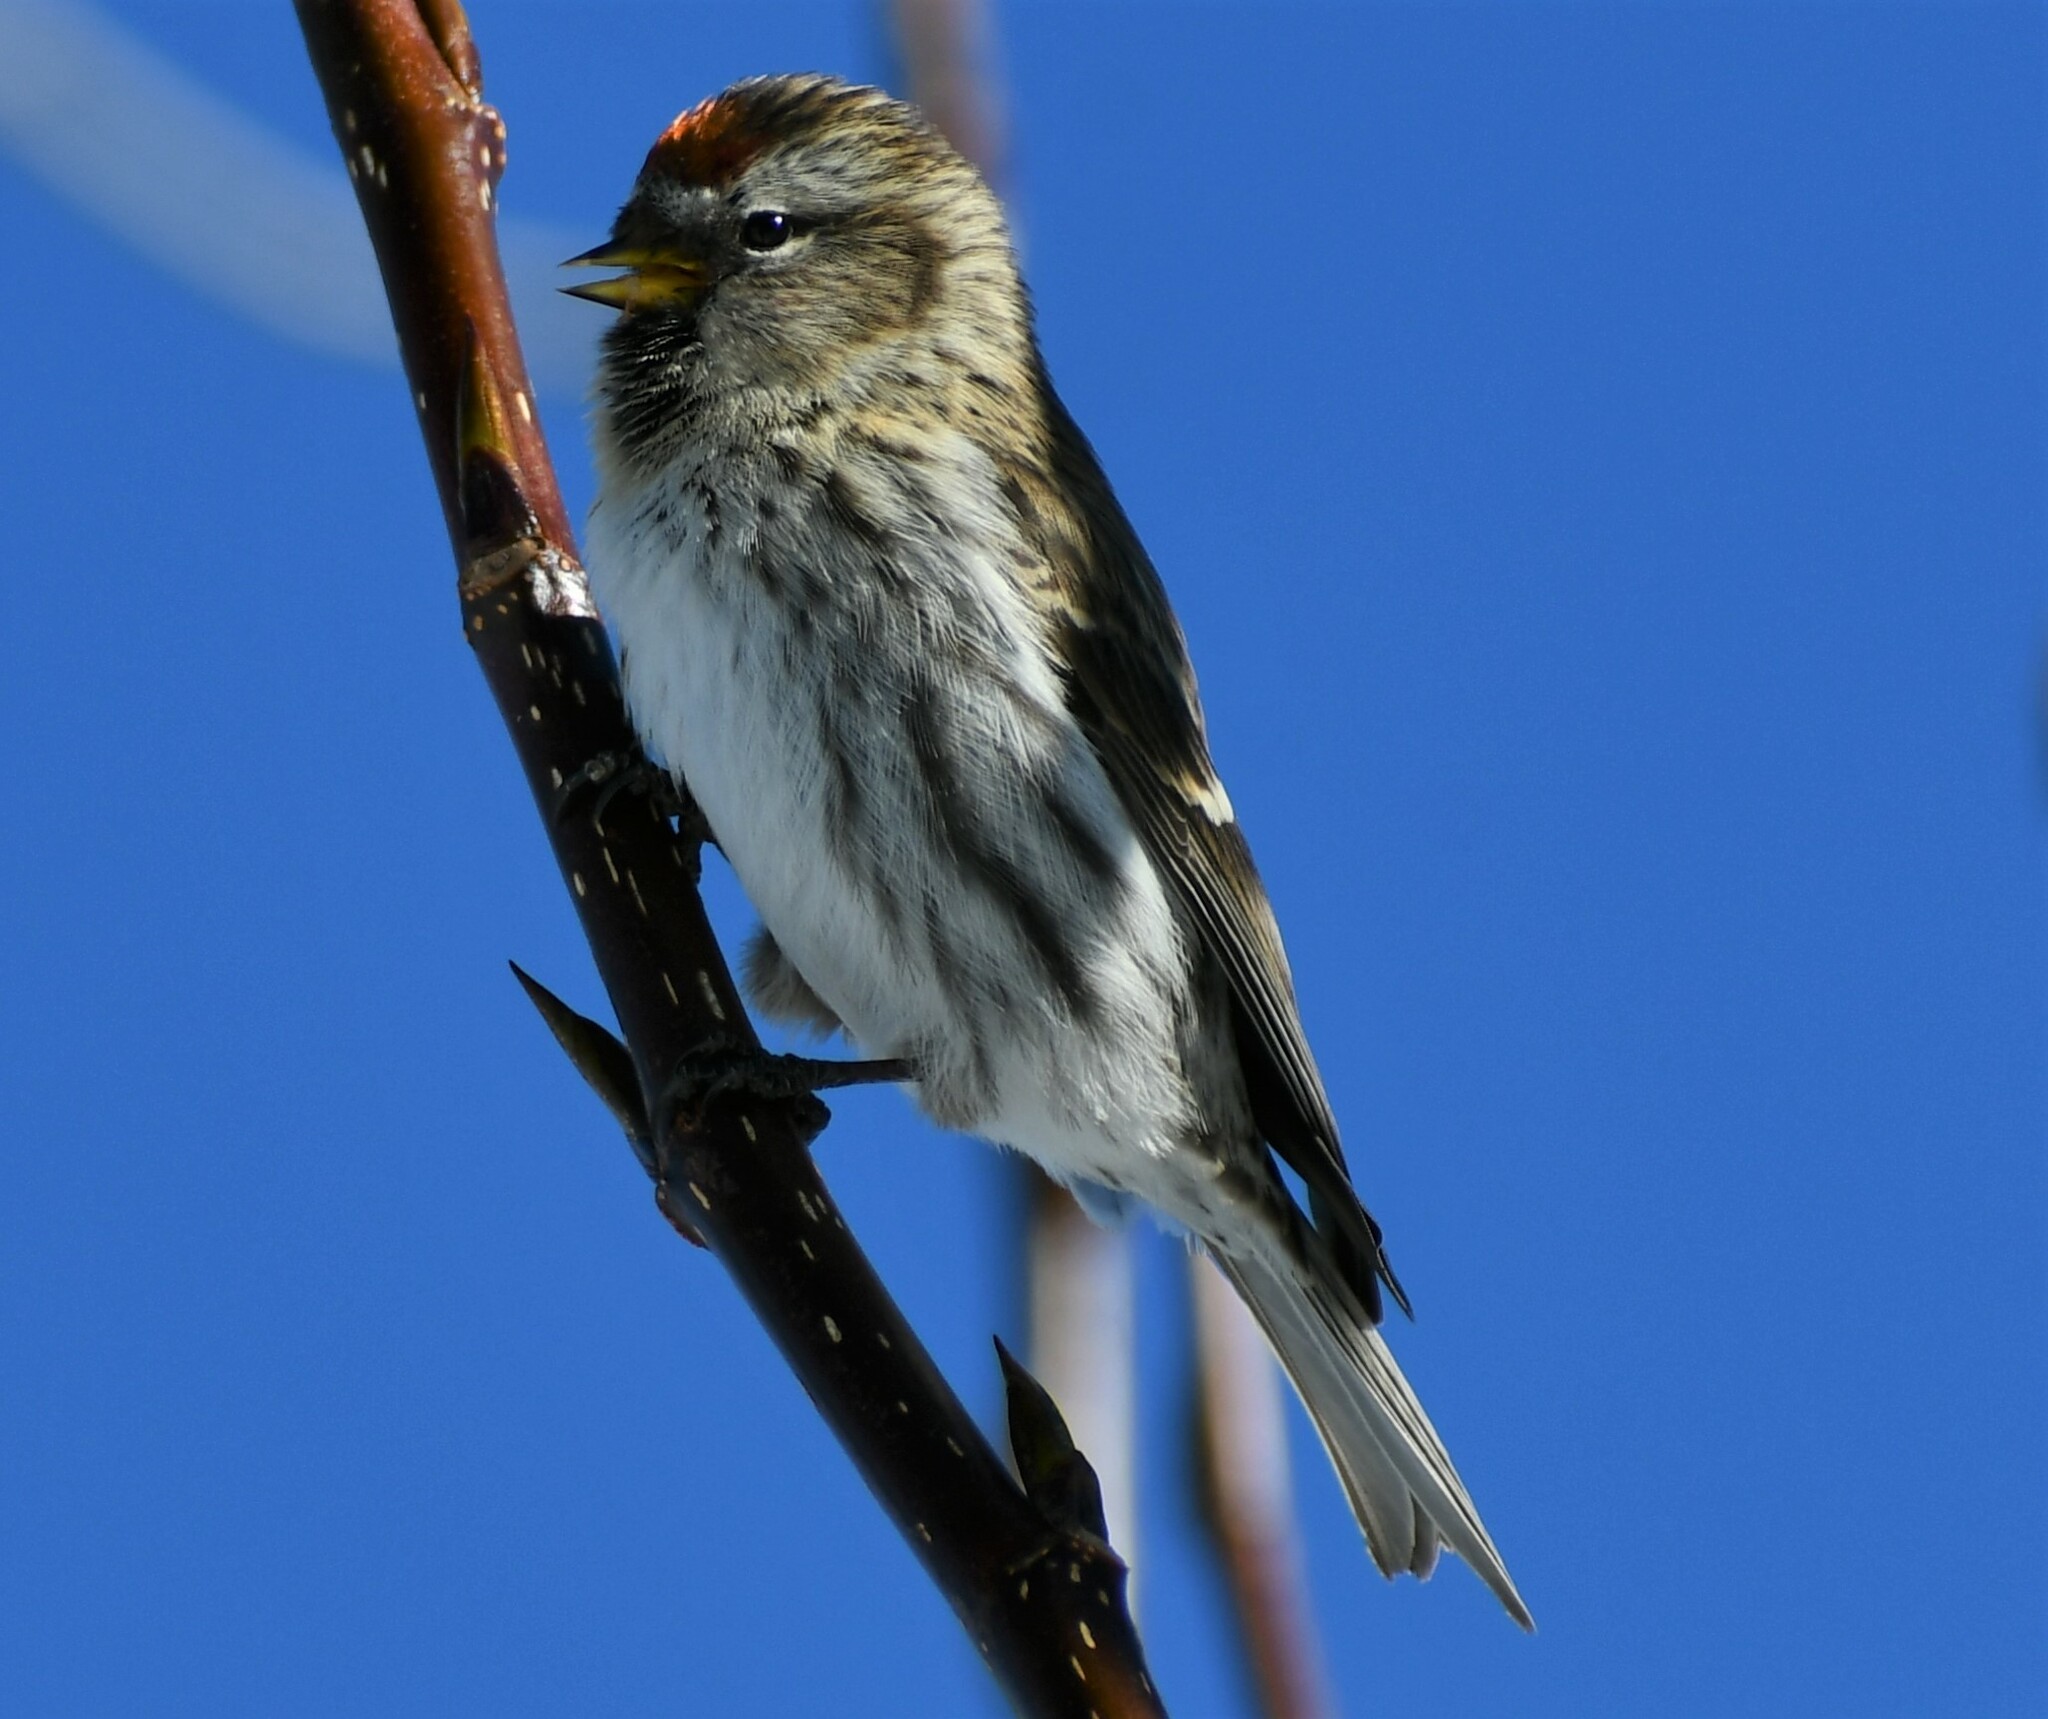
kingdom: Animalia
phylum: Chordata
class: Aves
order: Passeriformes
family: Fringillidae
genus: Acanthis
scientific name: Acanthis flammea
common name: Common redpoll
